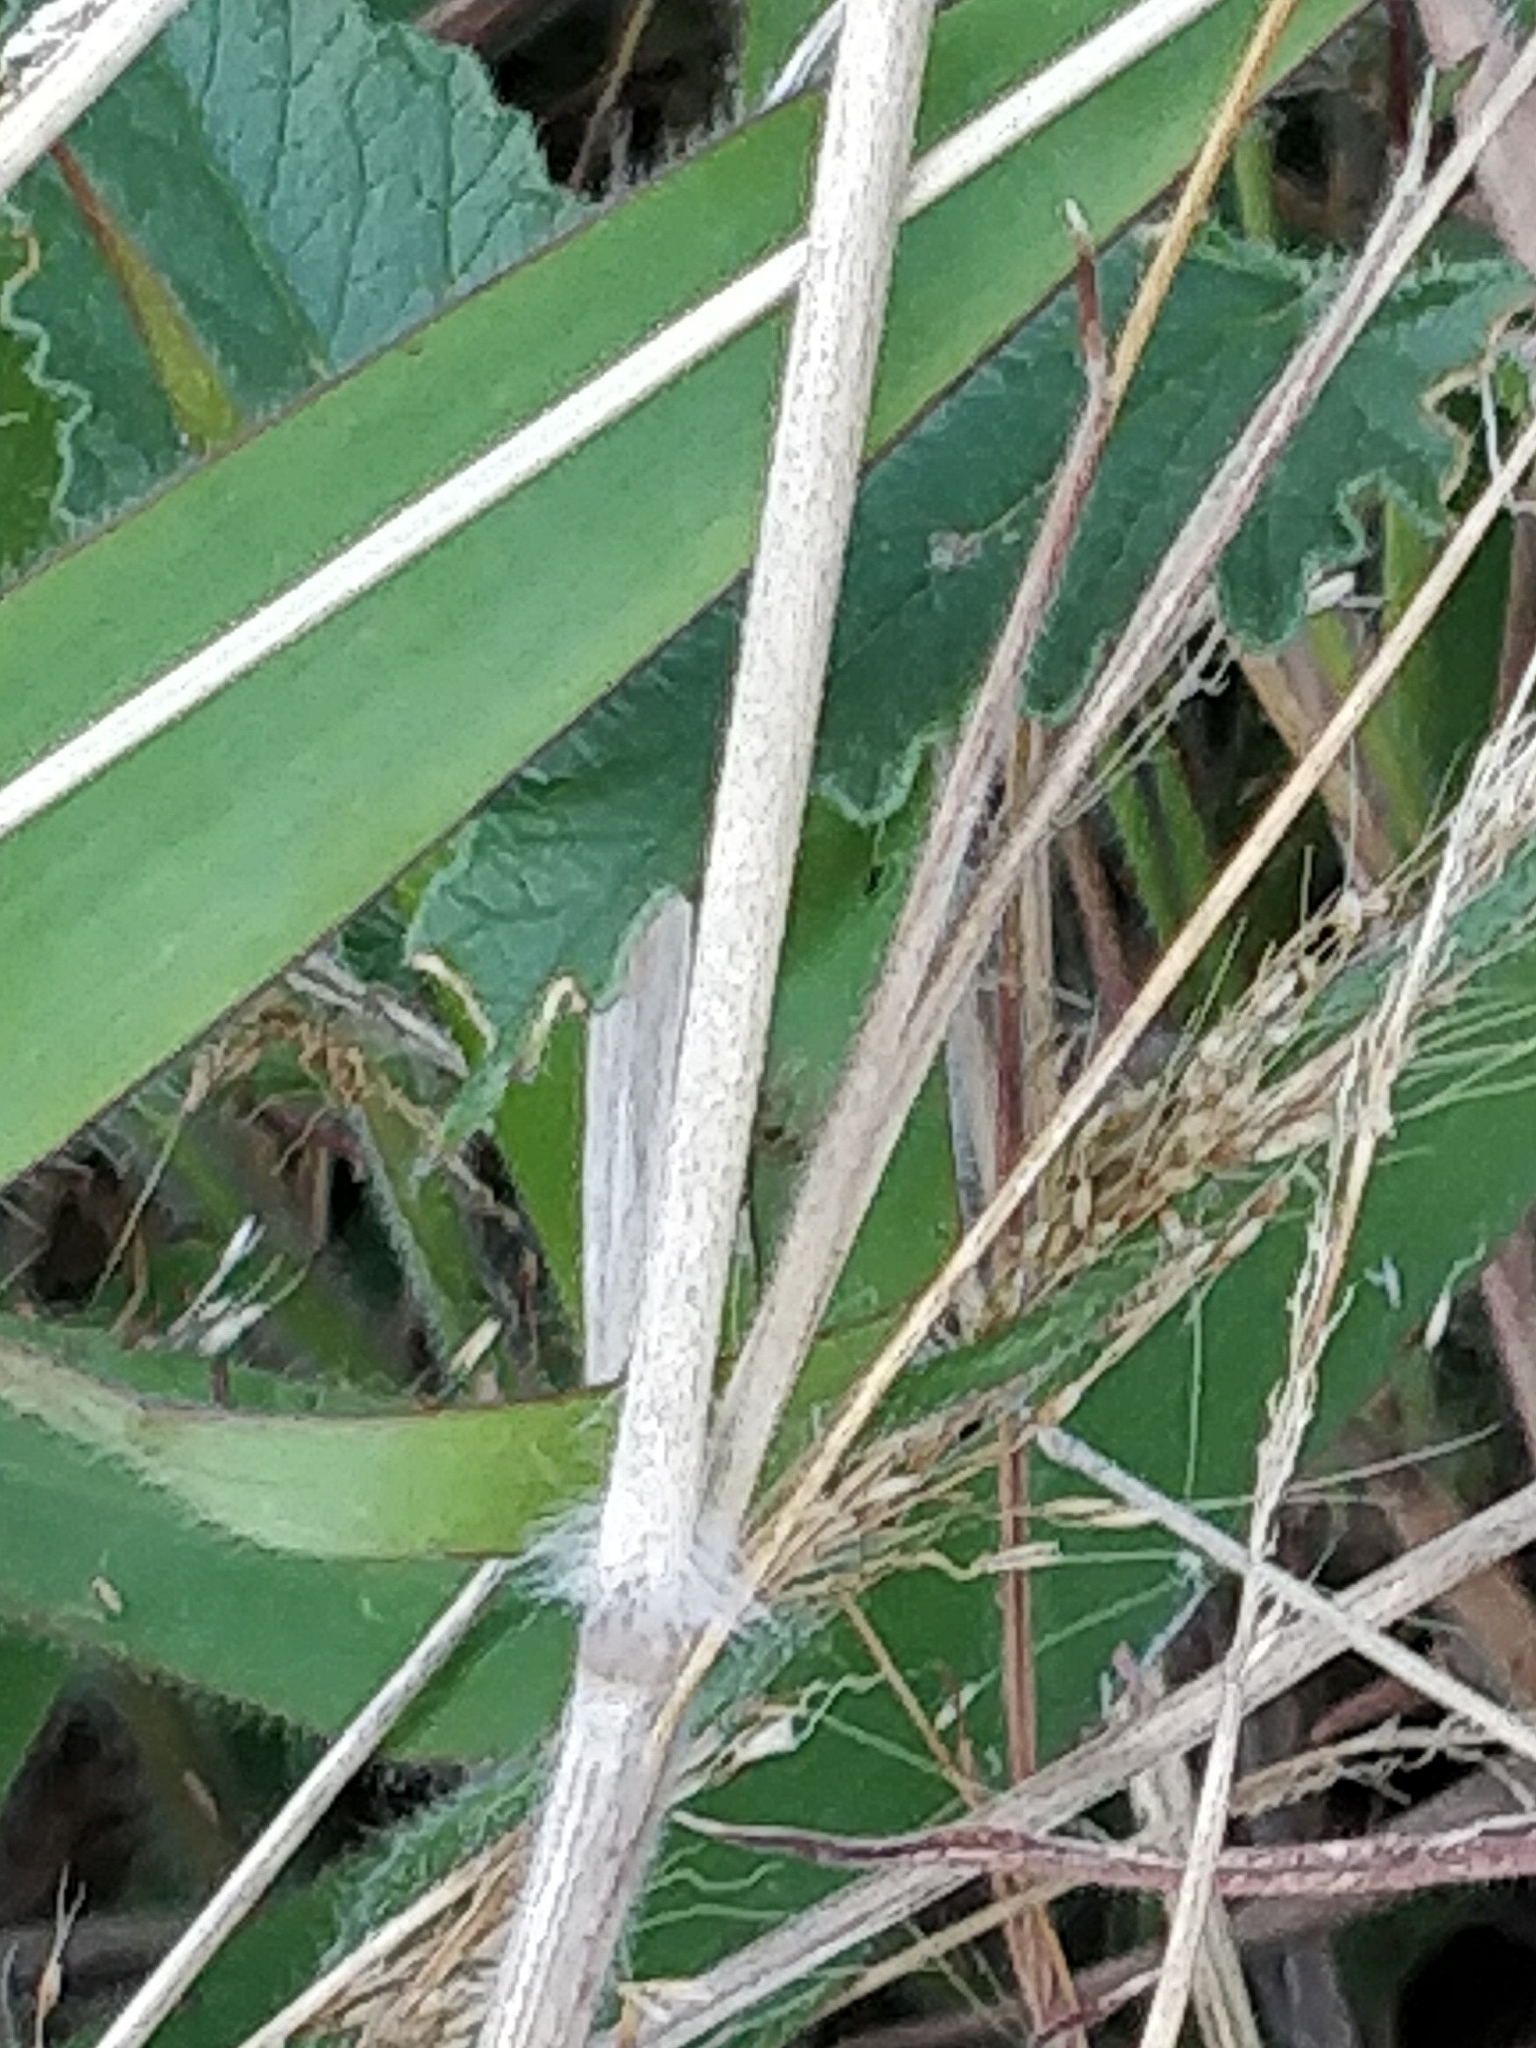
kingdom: Plantae
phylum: Tracheophyta
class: Magnoliopsida
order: Solanales
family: Convolvulaceae
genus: Convolvulus
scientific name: Convolvulus althaeoides
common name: Mallow bindweed
